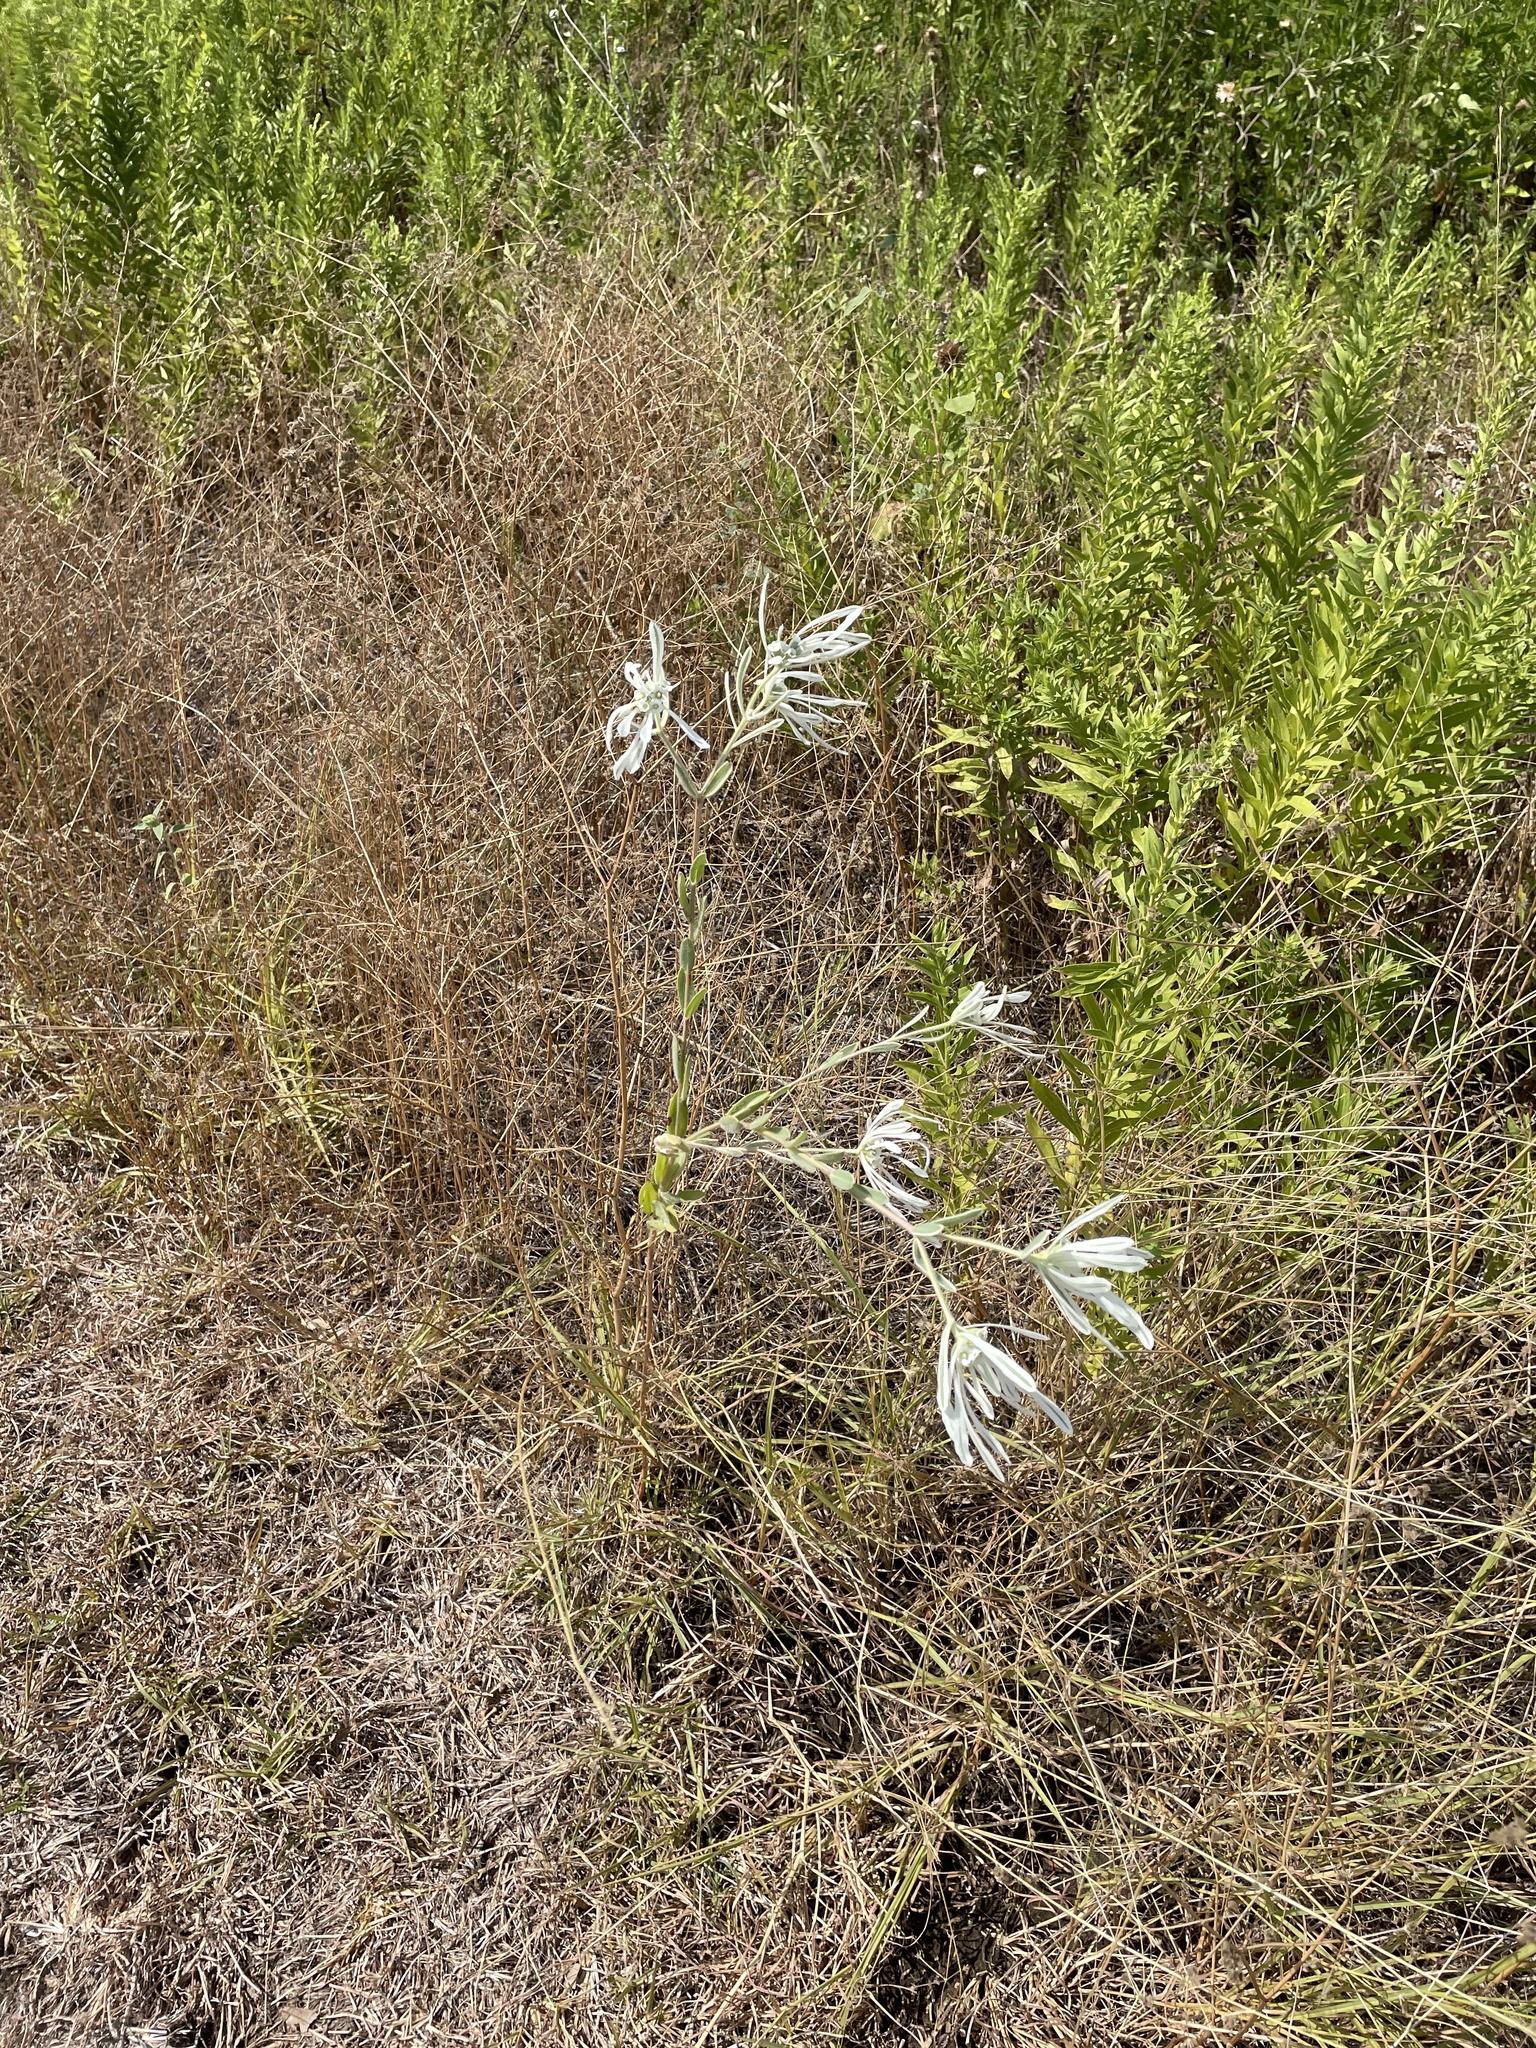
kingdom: Plantae
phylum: Tracheophyta
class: Magnoliopsida
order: Malpighiales
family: Euphorbiaceae
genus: Euphorbia
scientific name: Euphorbia bicolor
